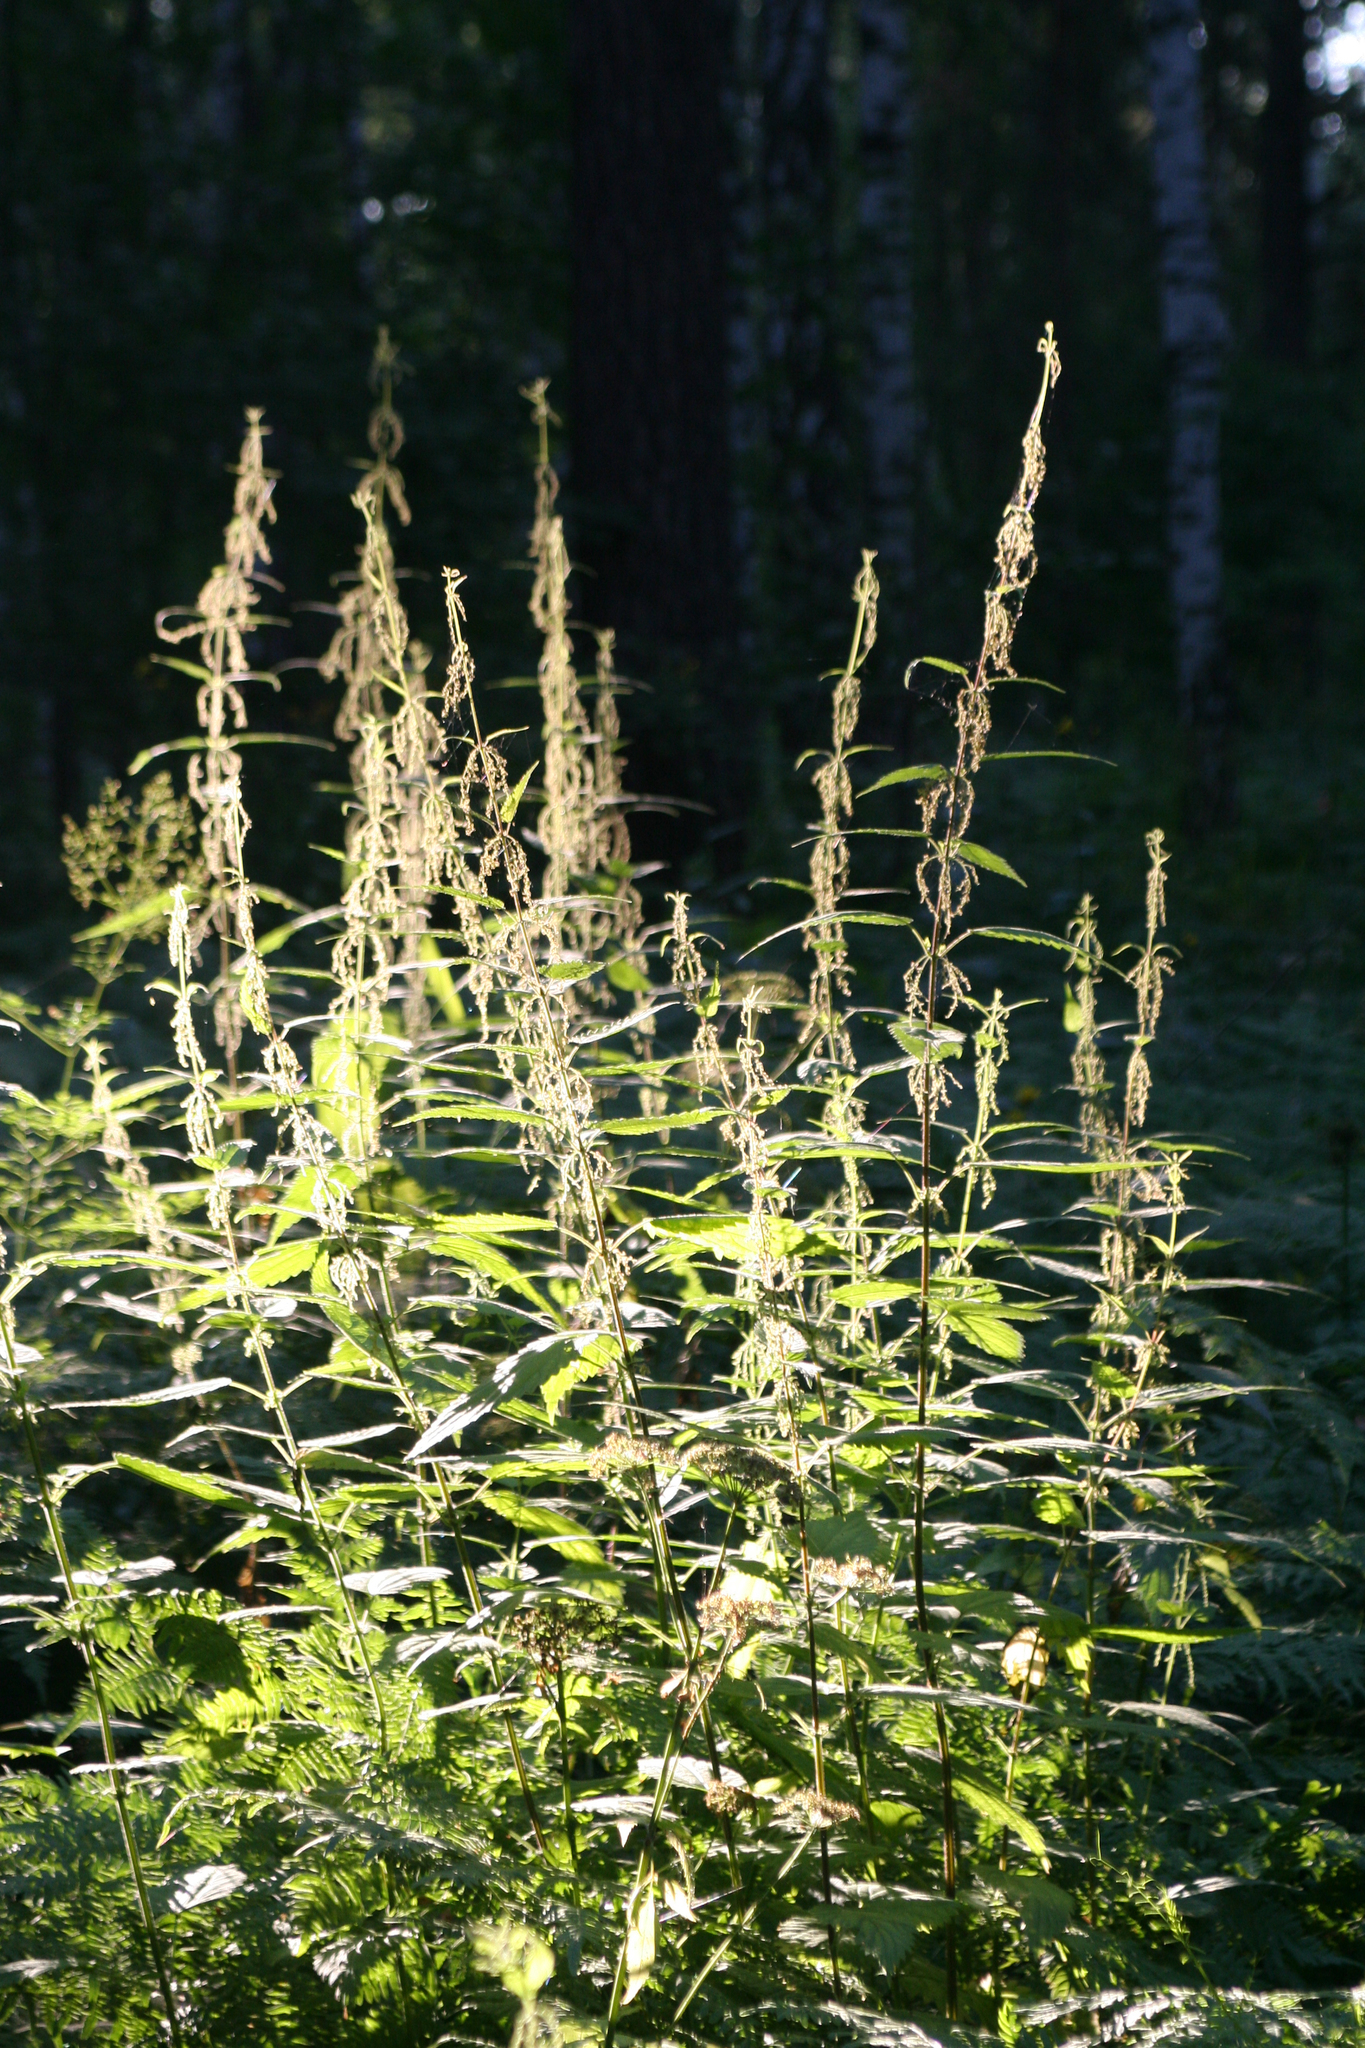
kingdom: Plantae
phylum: Tracheophyta
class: Magnoliopsida
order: Rosales
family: Urticaceae
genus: Urtica
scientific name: Urtica dioica
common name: Common nettle
